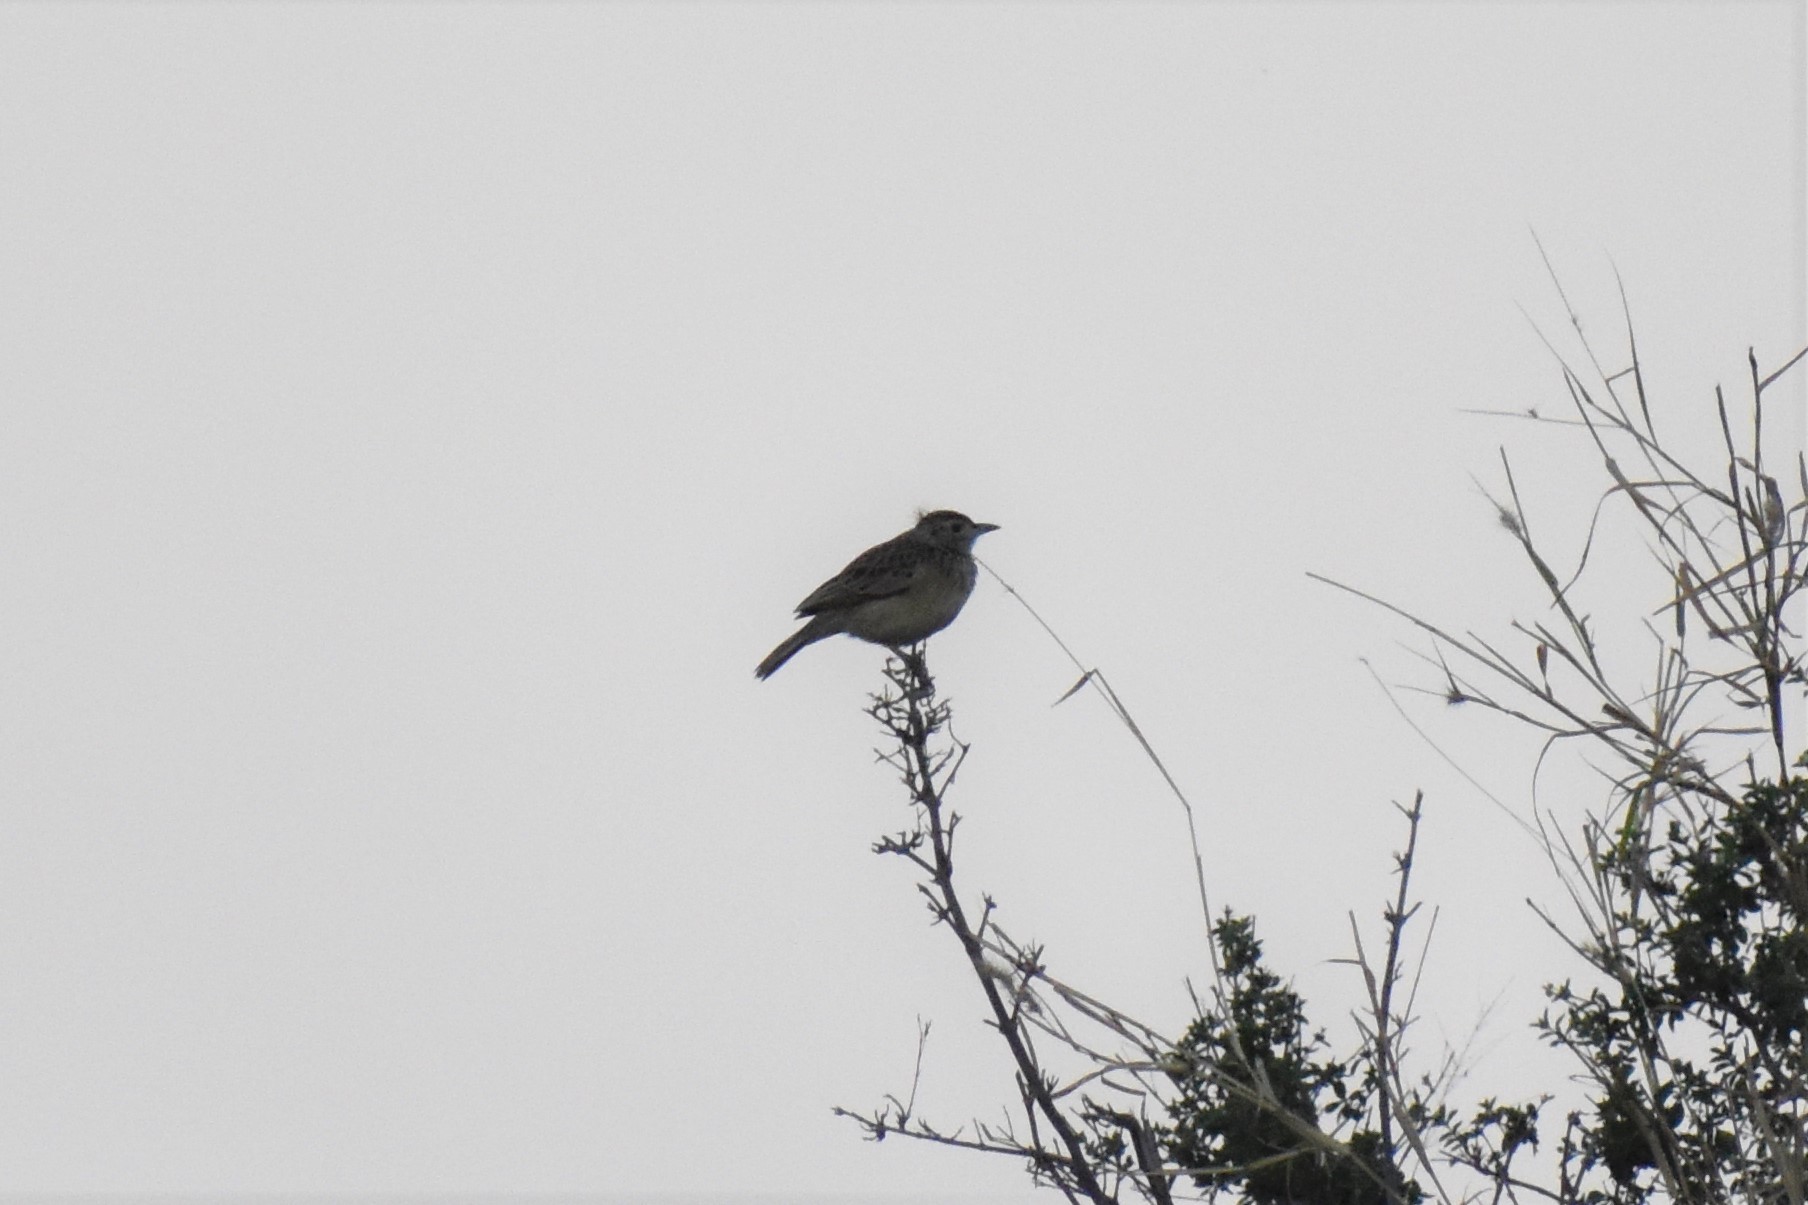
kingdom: Animalia
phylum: Chordata
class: Aves
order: Passeriformes
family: Alaudidae
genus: Mirafra
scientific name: Mirafra africana
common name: Rufous-naped lark
